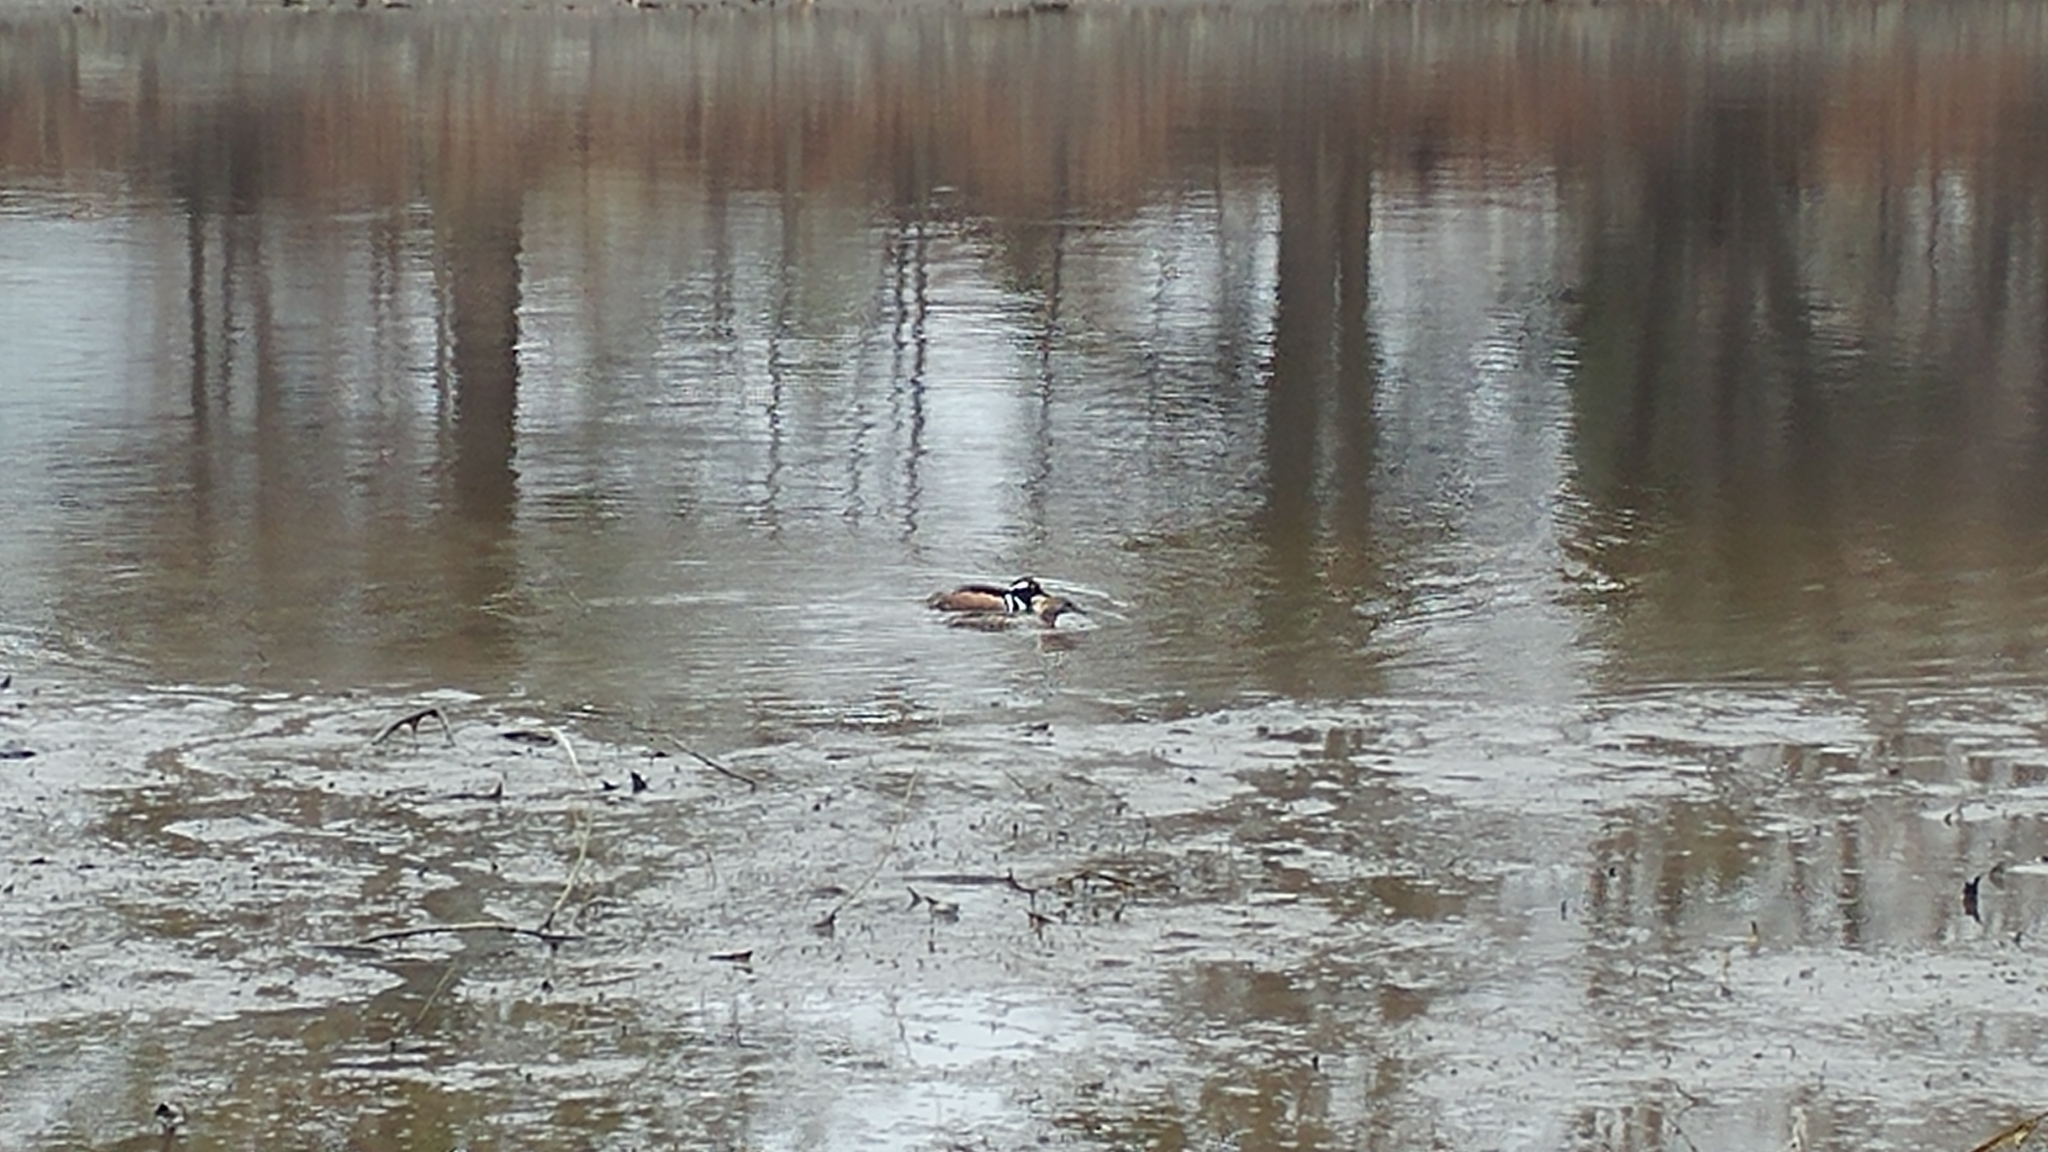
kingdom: Animalia
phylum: Chordata
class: Aves
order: Anseriformes
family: Anatidae
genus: Lophodytes
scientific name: Lophodytes cucullatus
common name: Hooded merganser
